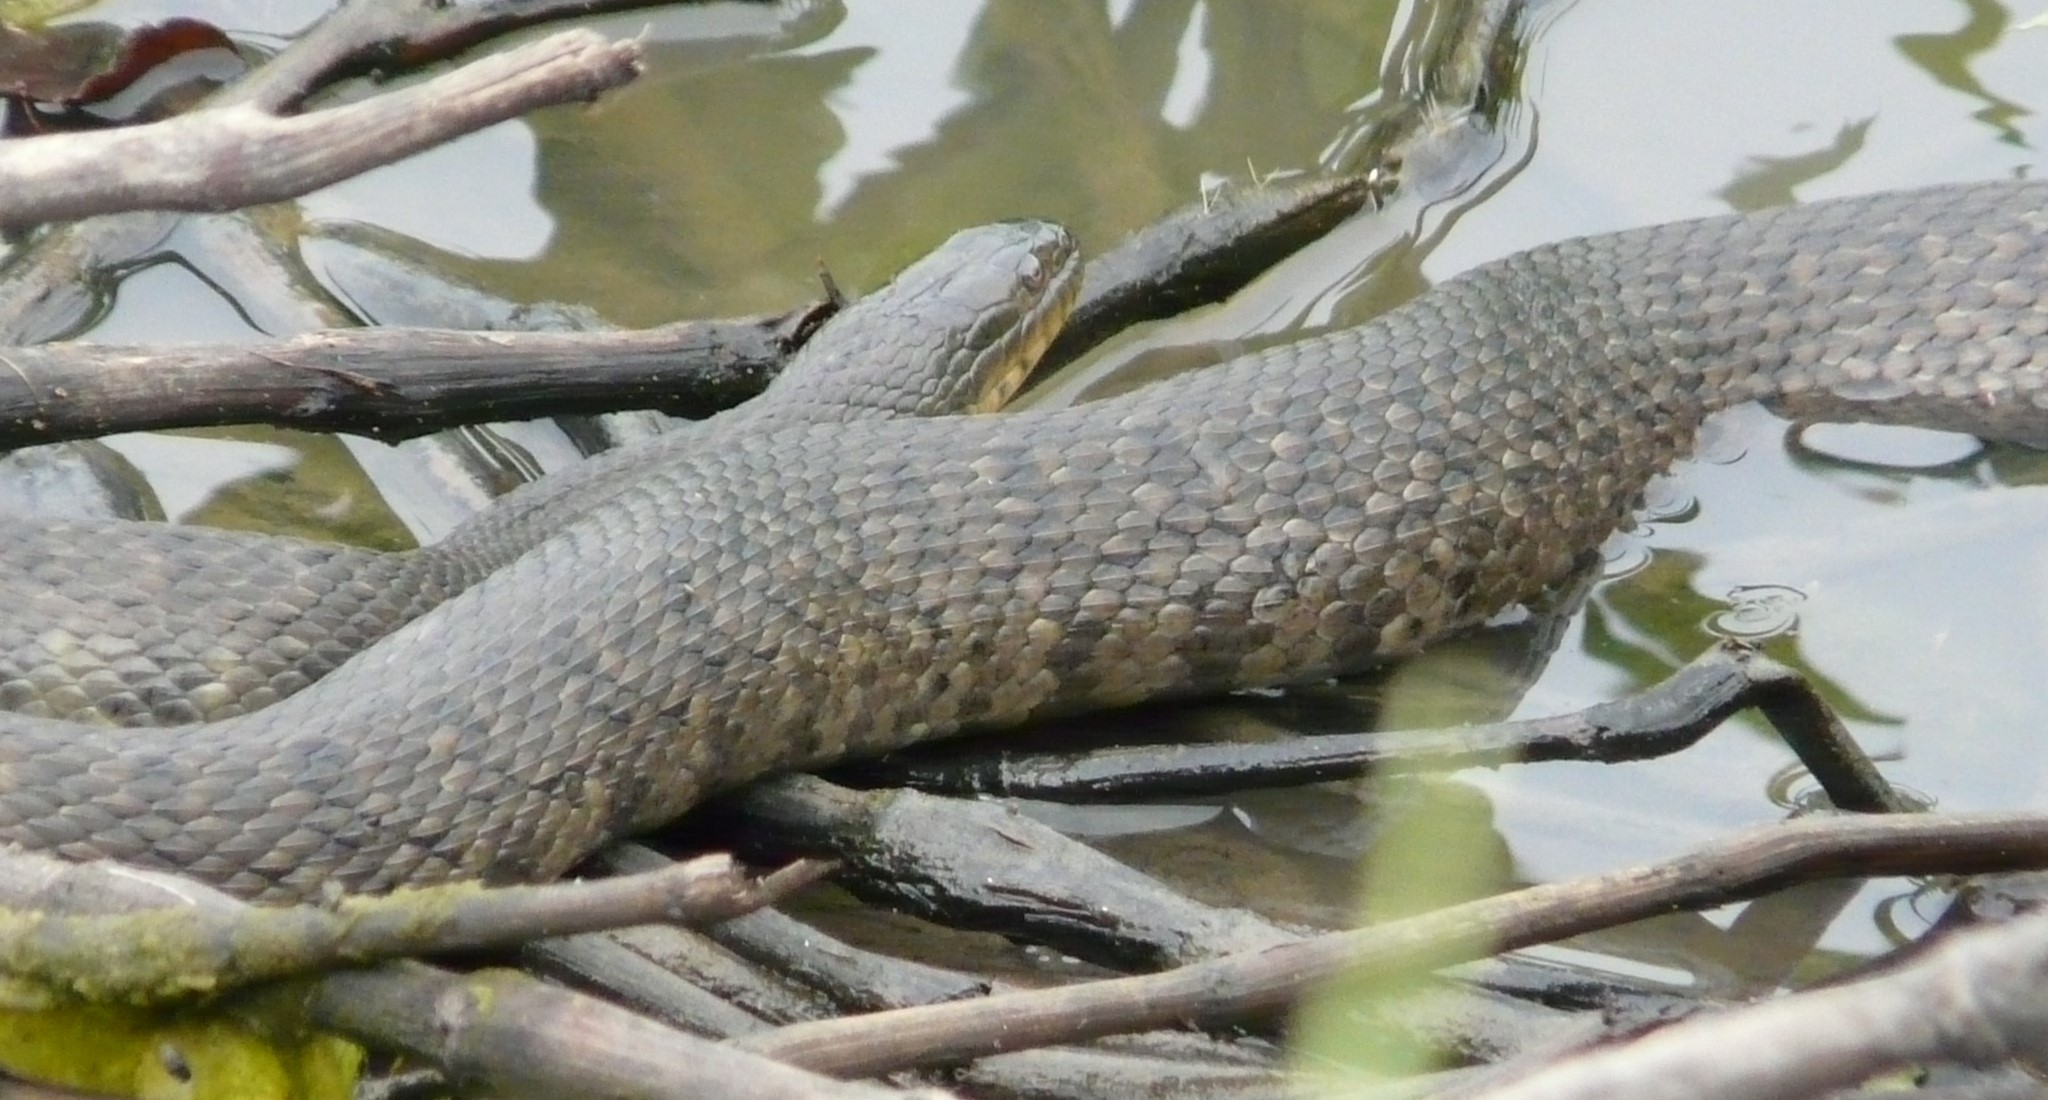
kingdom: Animalia
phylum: Chordata
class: Squamata
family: Colubridae
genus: Nerodia
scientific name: Nerodia cyclopion
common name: Mississippi green water snake
